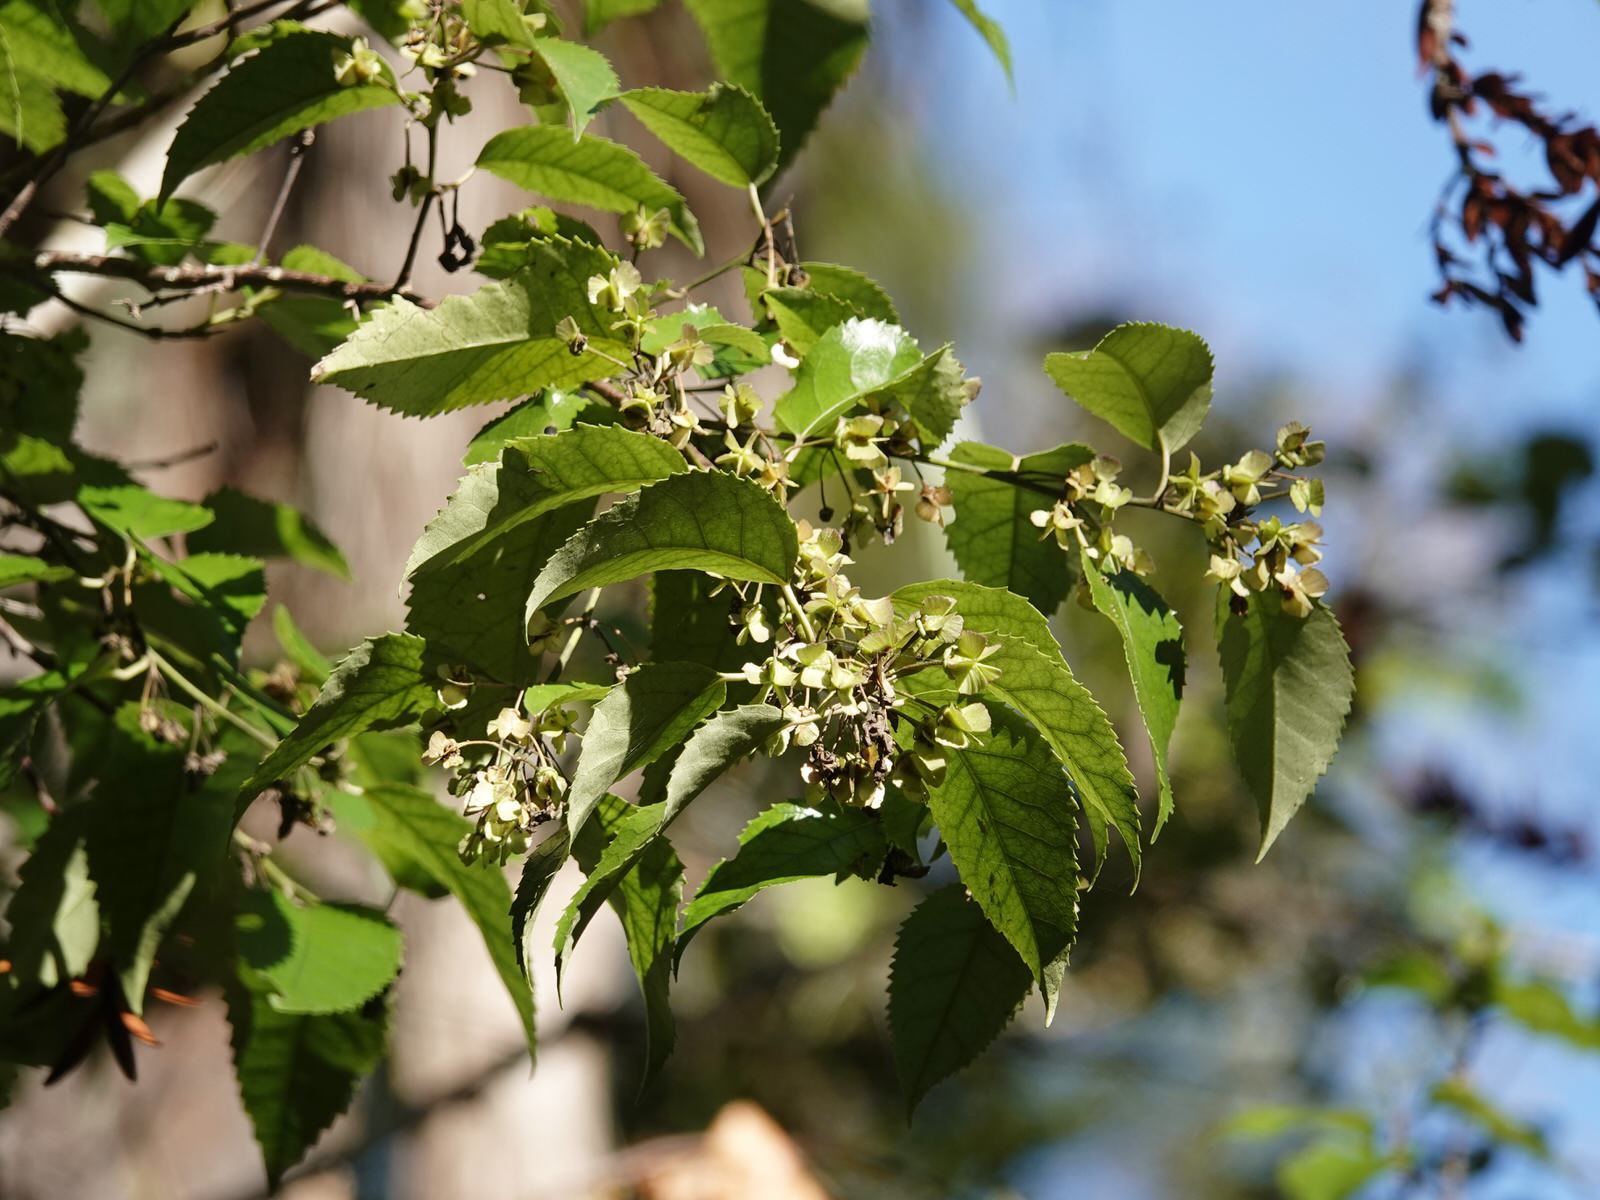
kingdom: Plantae
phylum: Tracheophyta
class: Magnoliopsida
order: Malvales
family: Malvaceae
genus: Hoheria
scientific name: Hoheria populnea
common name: Lacebark
